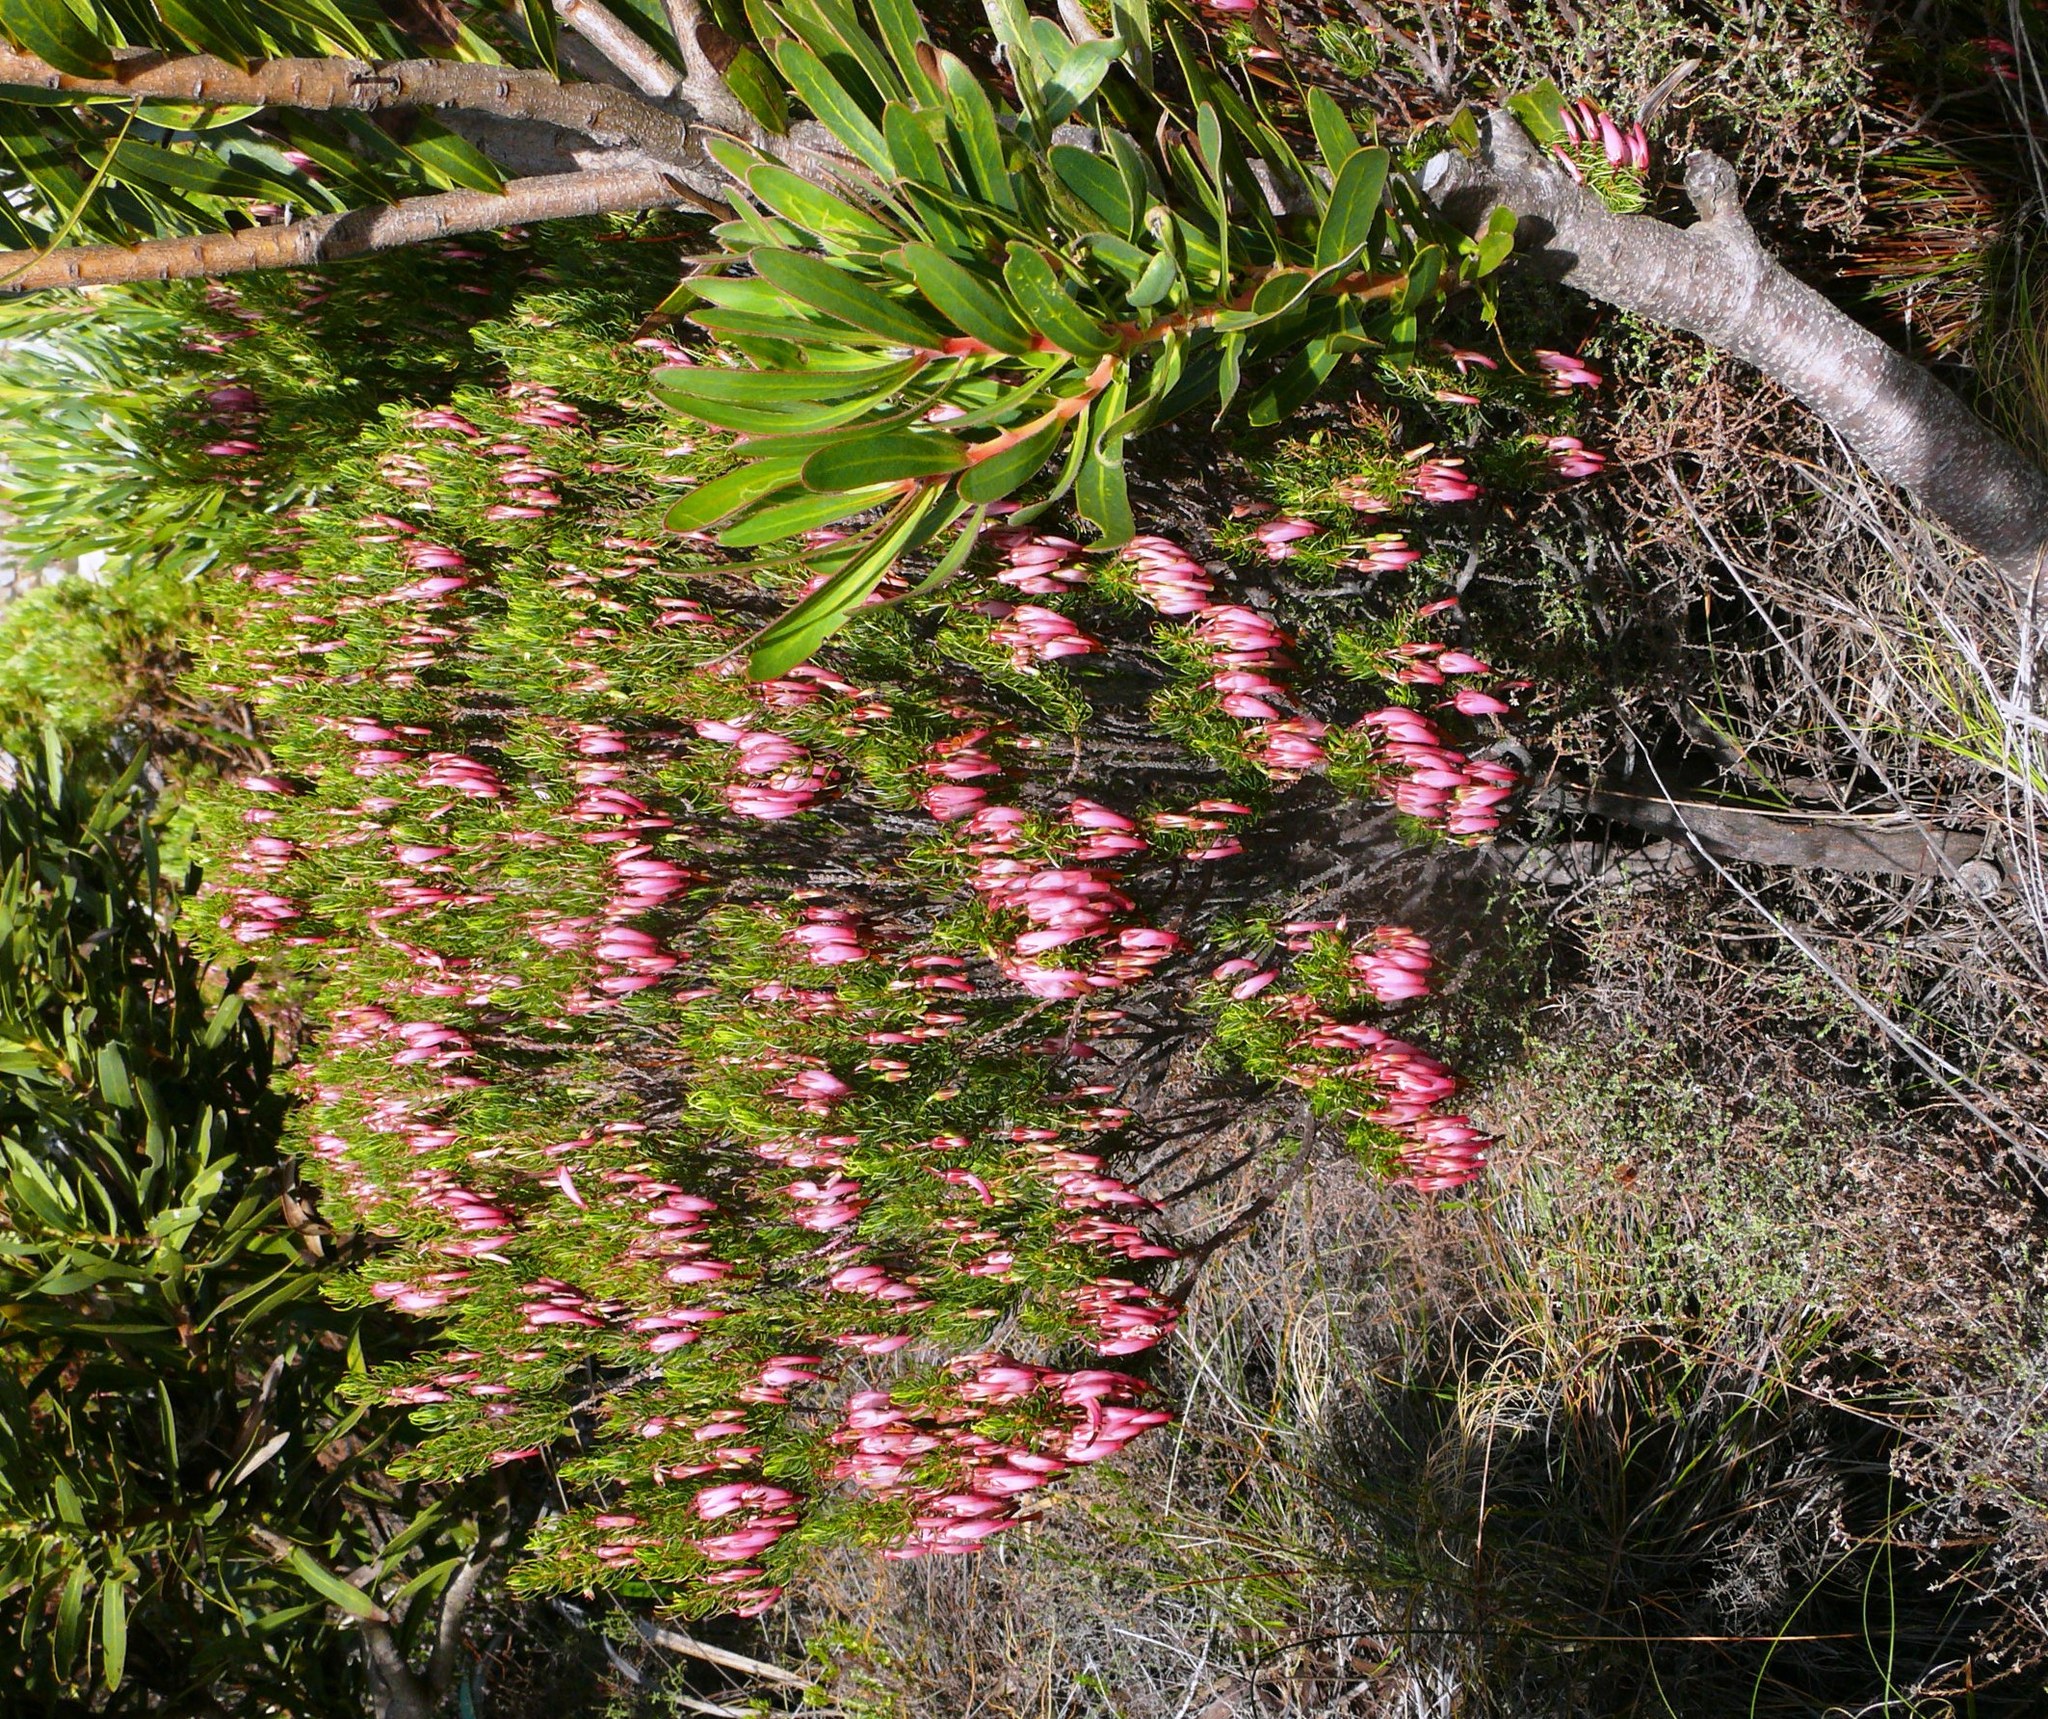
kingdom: Plantae
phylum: Tracheophyta
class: Magnoliopsida
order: Ericales
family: Ericaceae
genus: Erica
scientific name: Erica plukenetii
